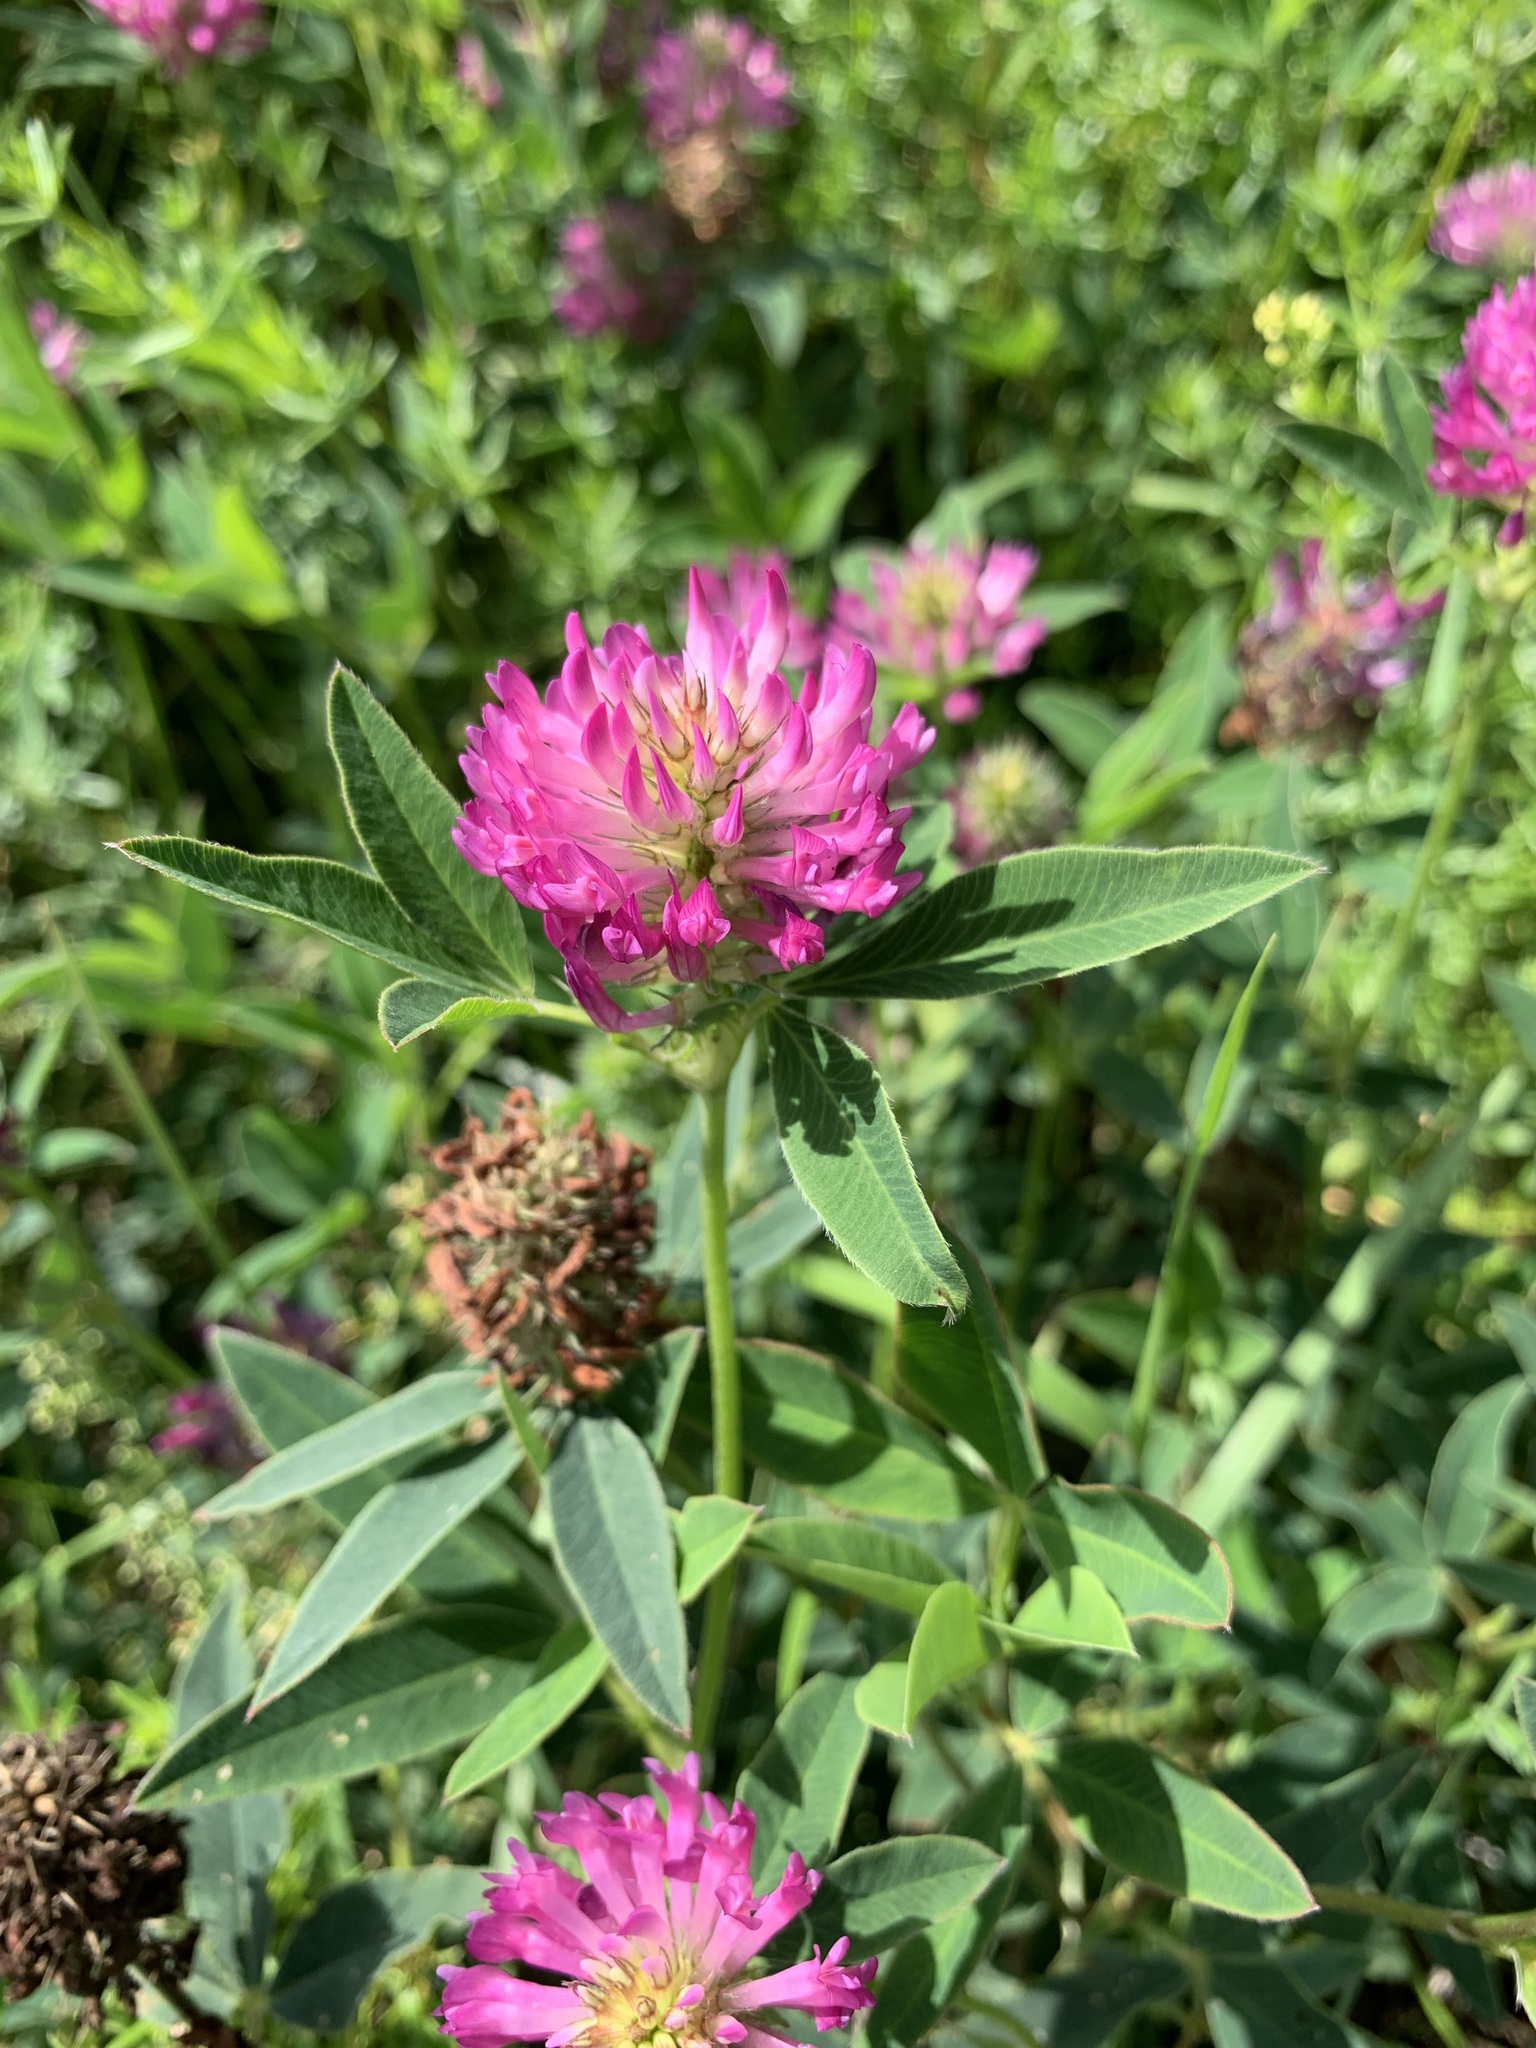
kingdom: Plantae
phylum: Tracheophyta
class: Magnoliopsida
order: Fabales
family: Fabaceae
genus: Trifolium
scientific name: Trifolium medium
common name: Zigzag clover
